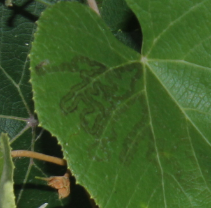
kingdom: Animalia
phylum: Arthropoda
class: Insecta
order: Lepidoptera
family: Gracillariidae
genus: Phyllocnistis
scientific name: Phyllocnistis vitegenella
